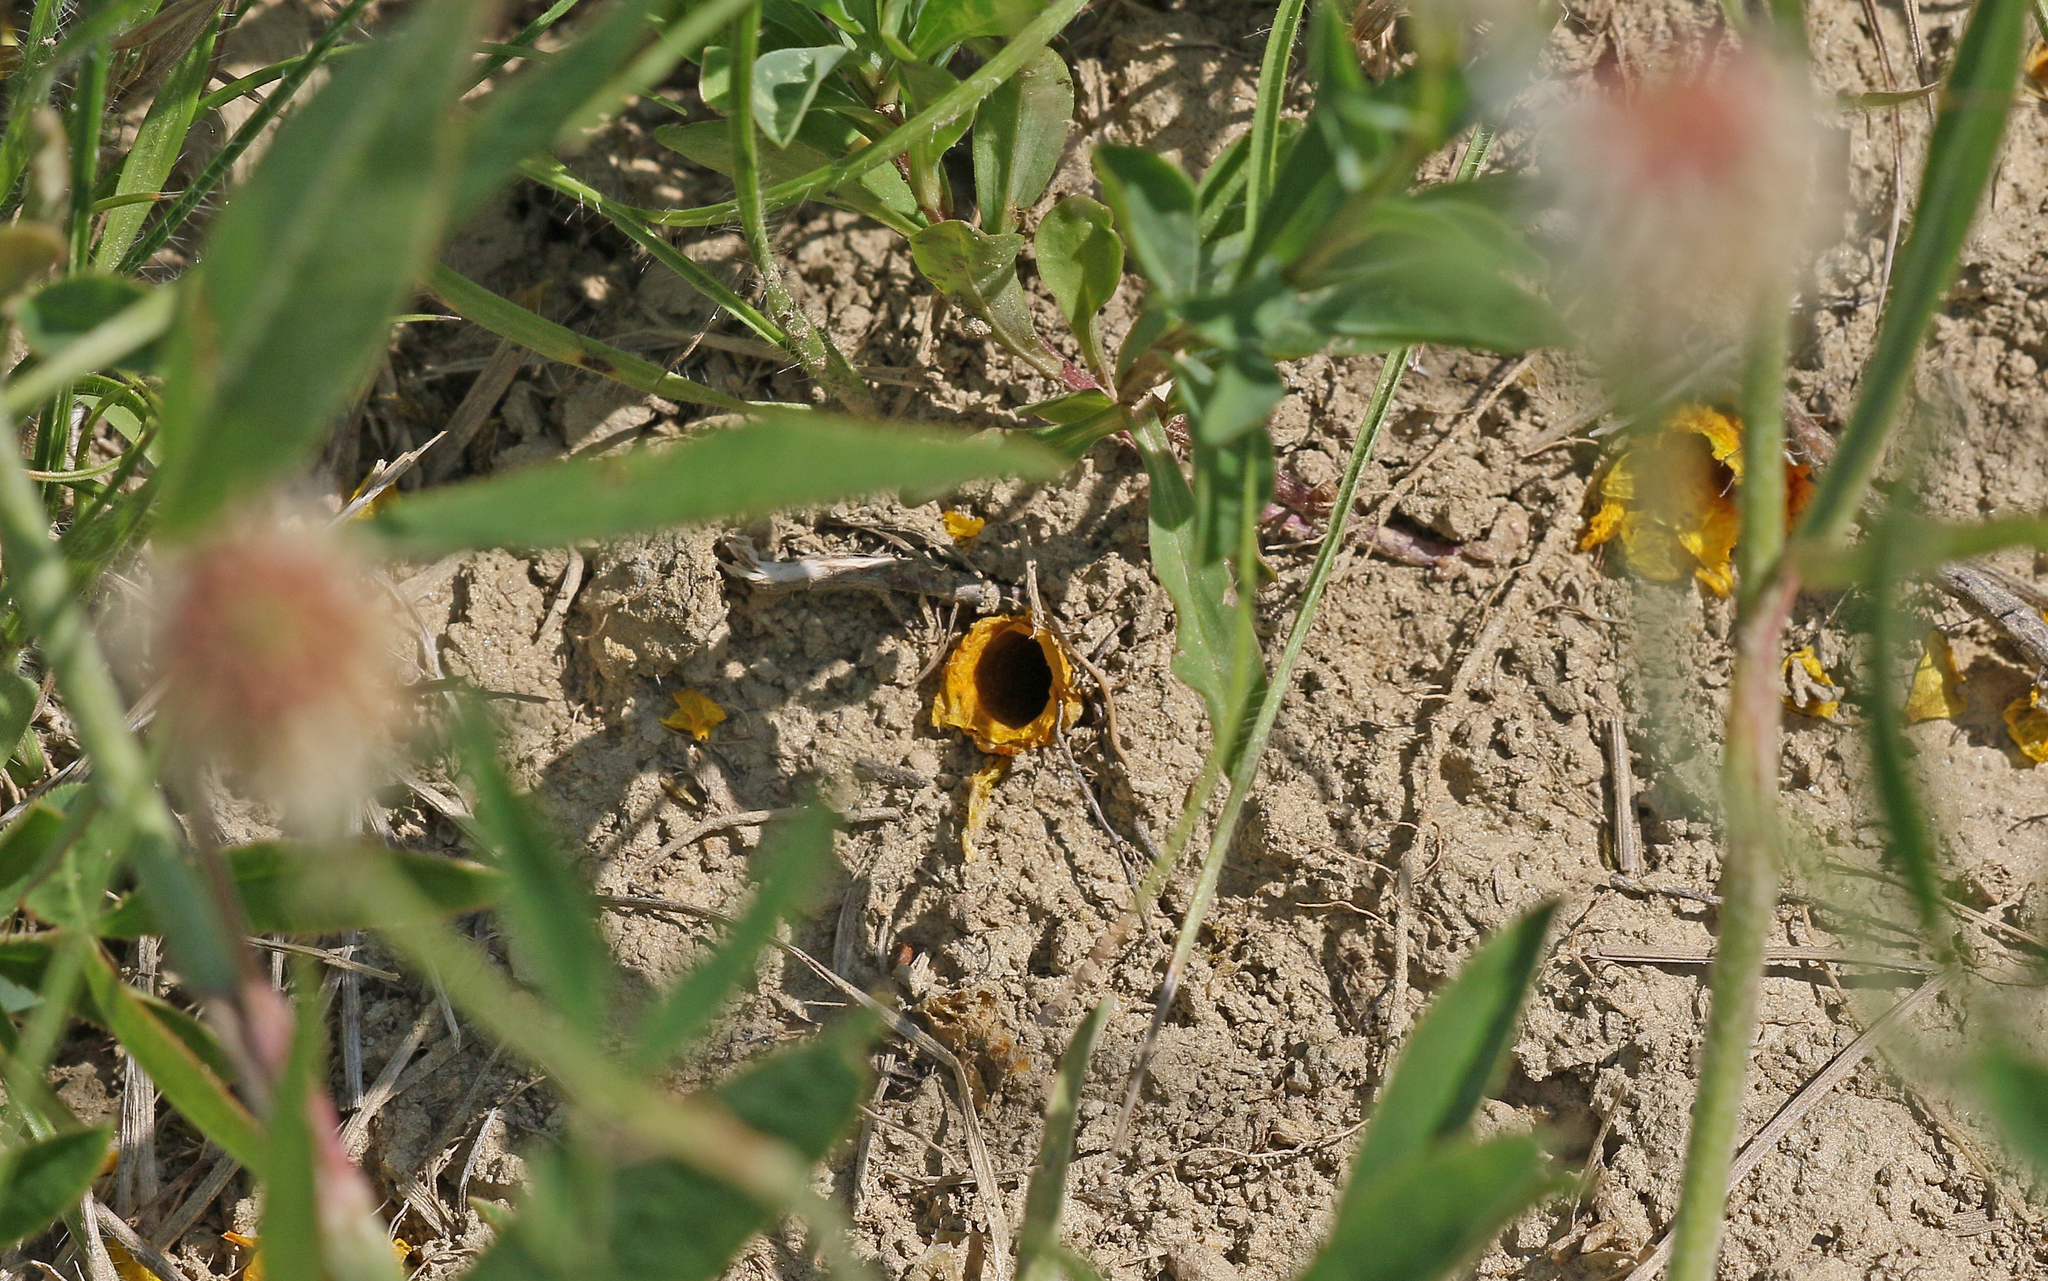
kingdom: Animalia
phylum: Arthropoda
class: Insecta
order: Hymenoptera
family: Megachilidae
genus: Hoplitis
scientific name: Hoplitis mocsaryi
